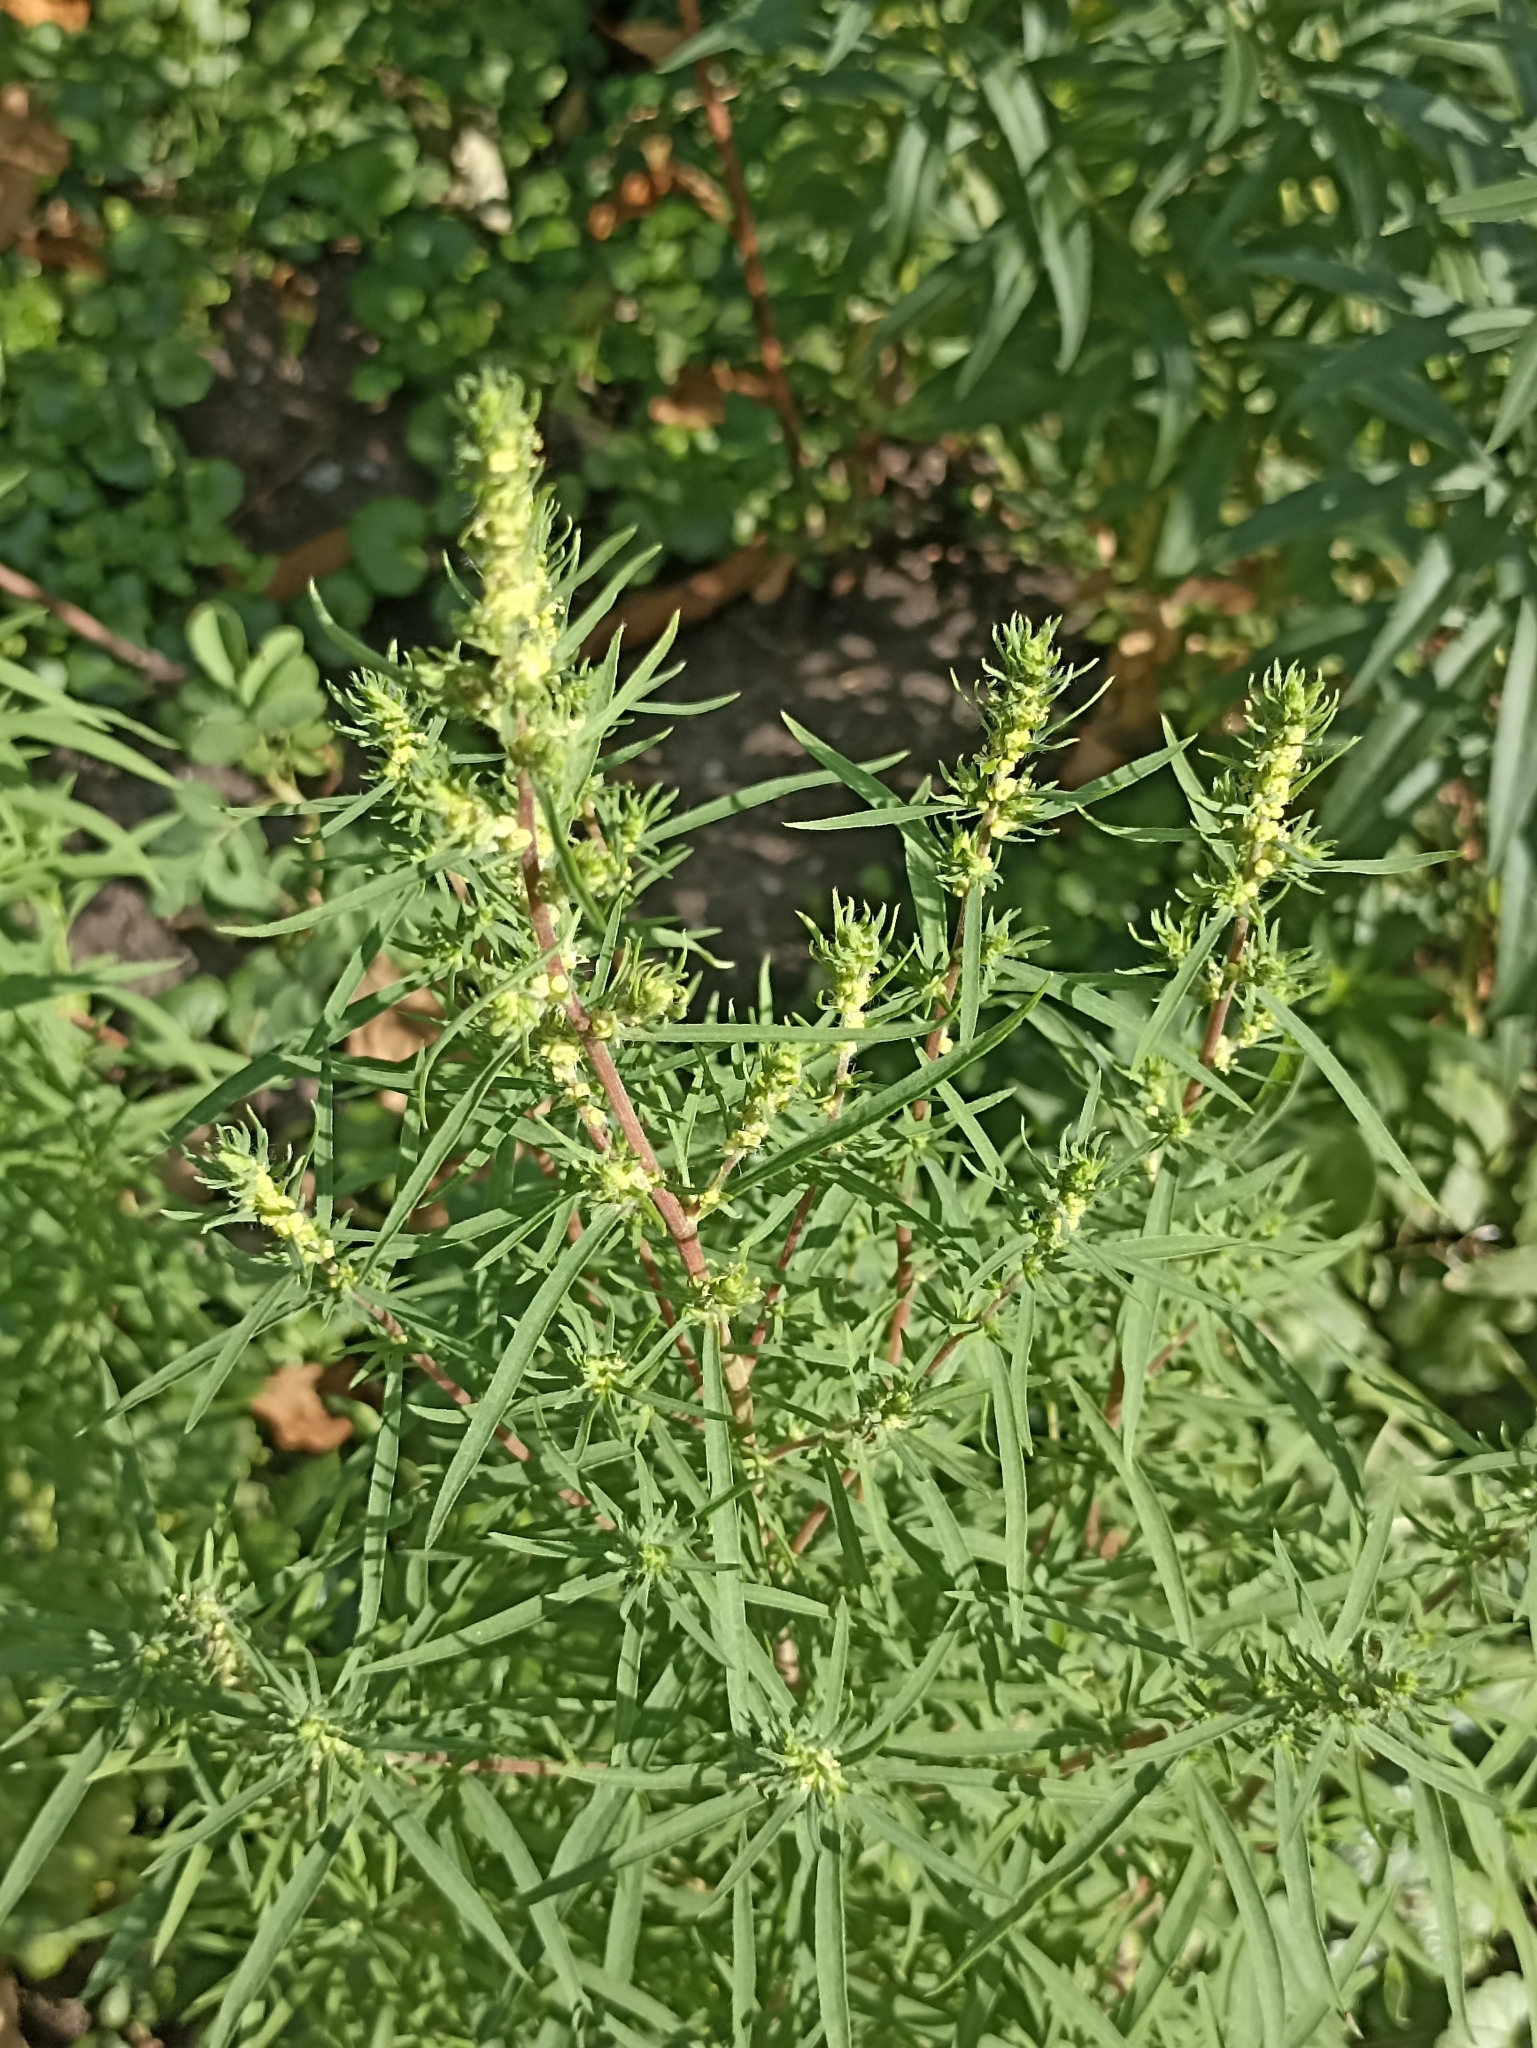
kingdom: Plantae
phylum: Tracheophyta
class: Magnoliopsida
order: Caryophyllales
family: Amaranthaceae
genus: Bassia
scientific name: Bassia scoparia
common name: Belvedere
